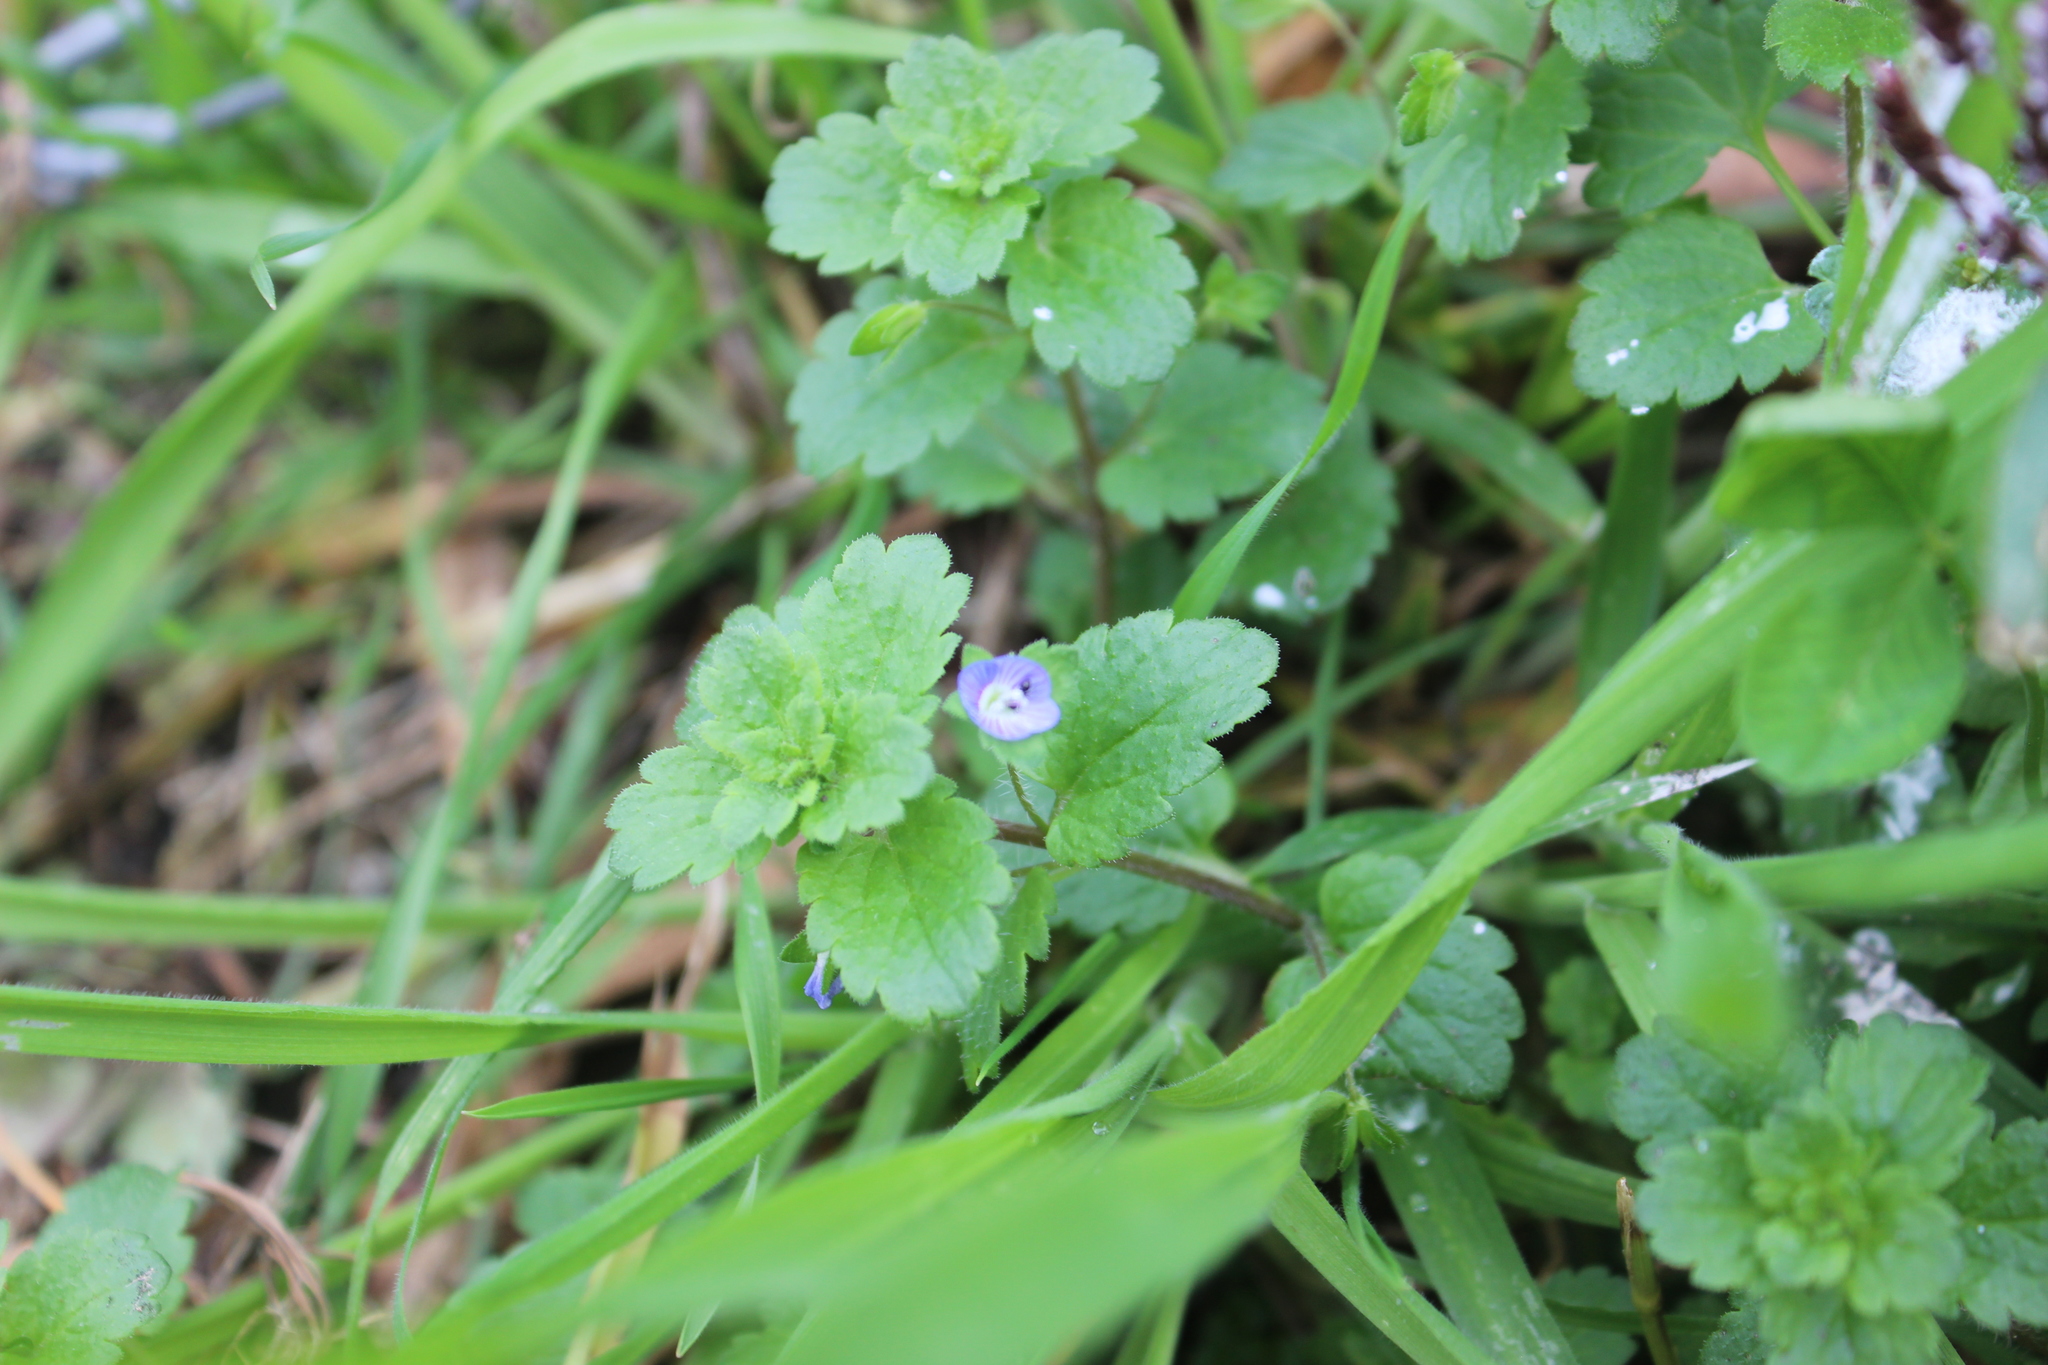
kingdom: Plantae
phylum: Tracheophyta
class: Magnoliopsida
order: Lamiales
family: Plantaginaceae
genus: Veronica
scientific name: Veronica persica
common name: Common field-speedwell
